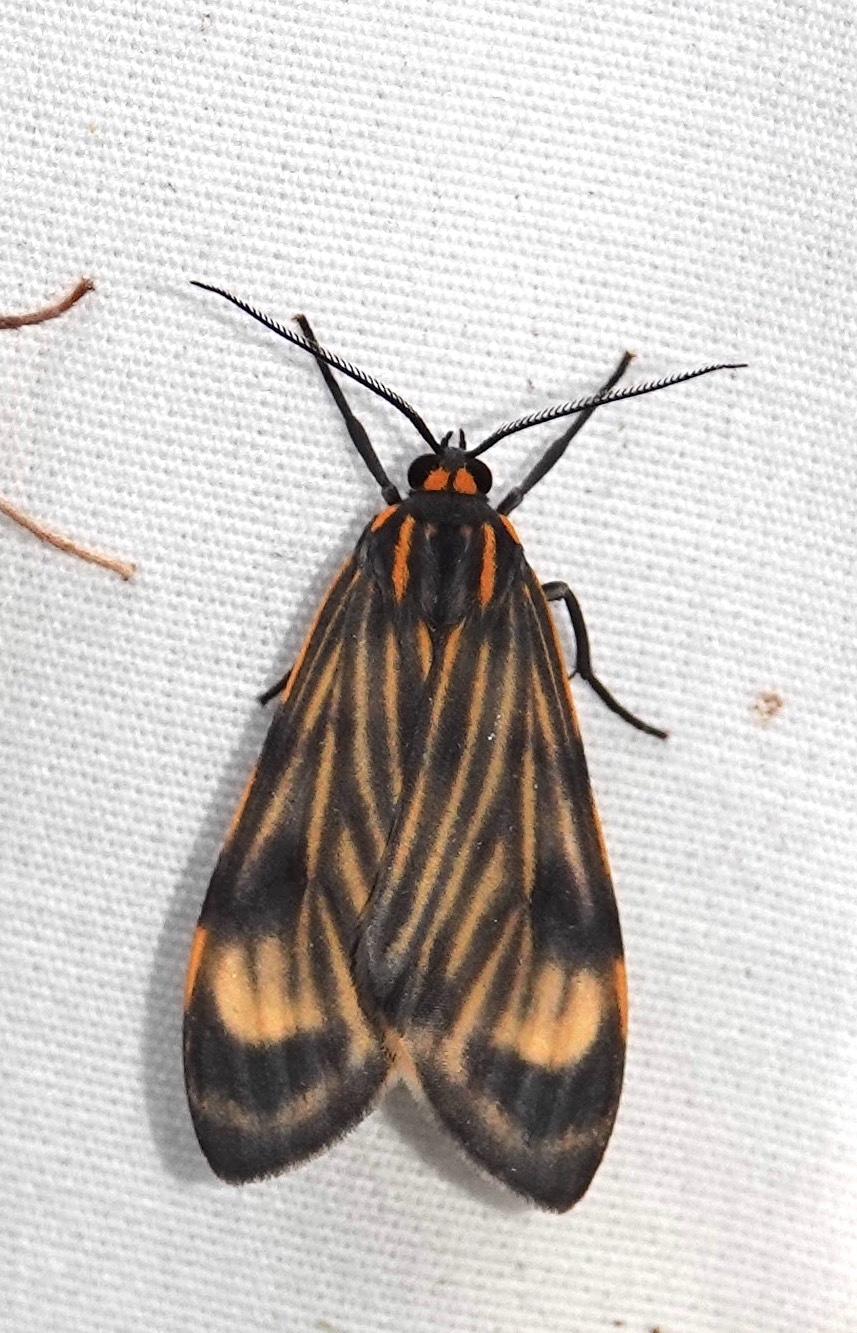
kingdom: Animalia
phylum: Arthropoda
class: Insecta
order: Lepidoptera
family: Erebidae
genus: Eucereon
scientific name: Eucereon costulatum
